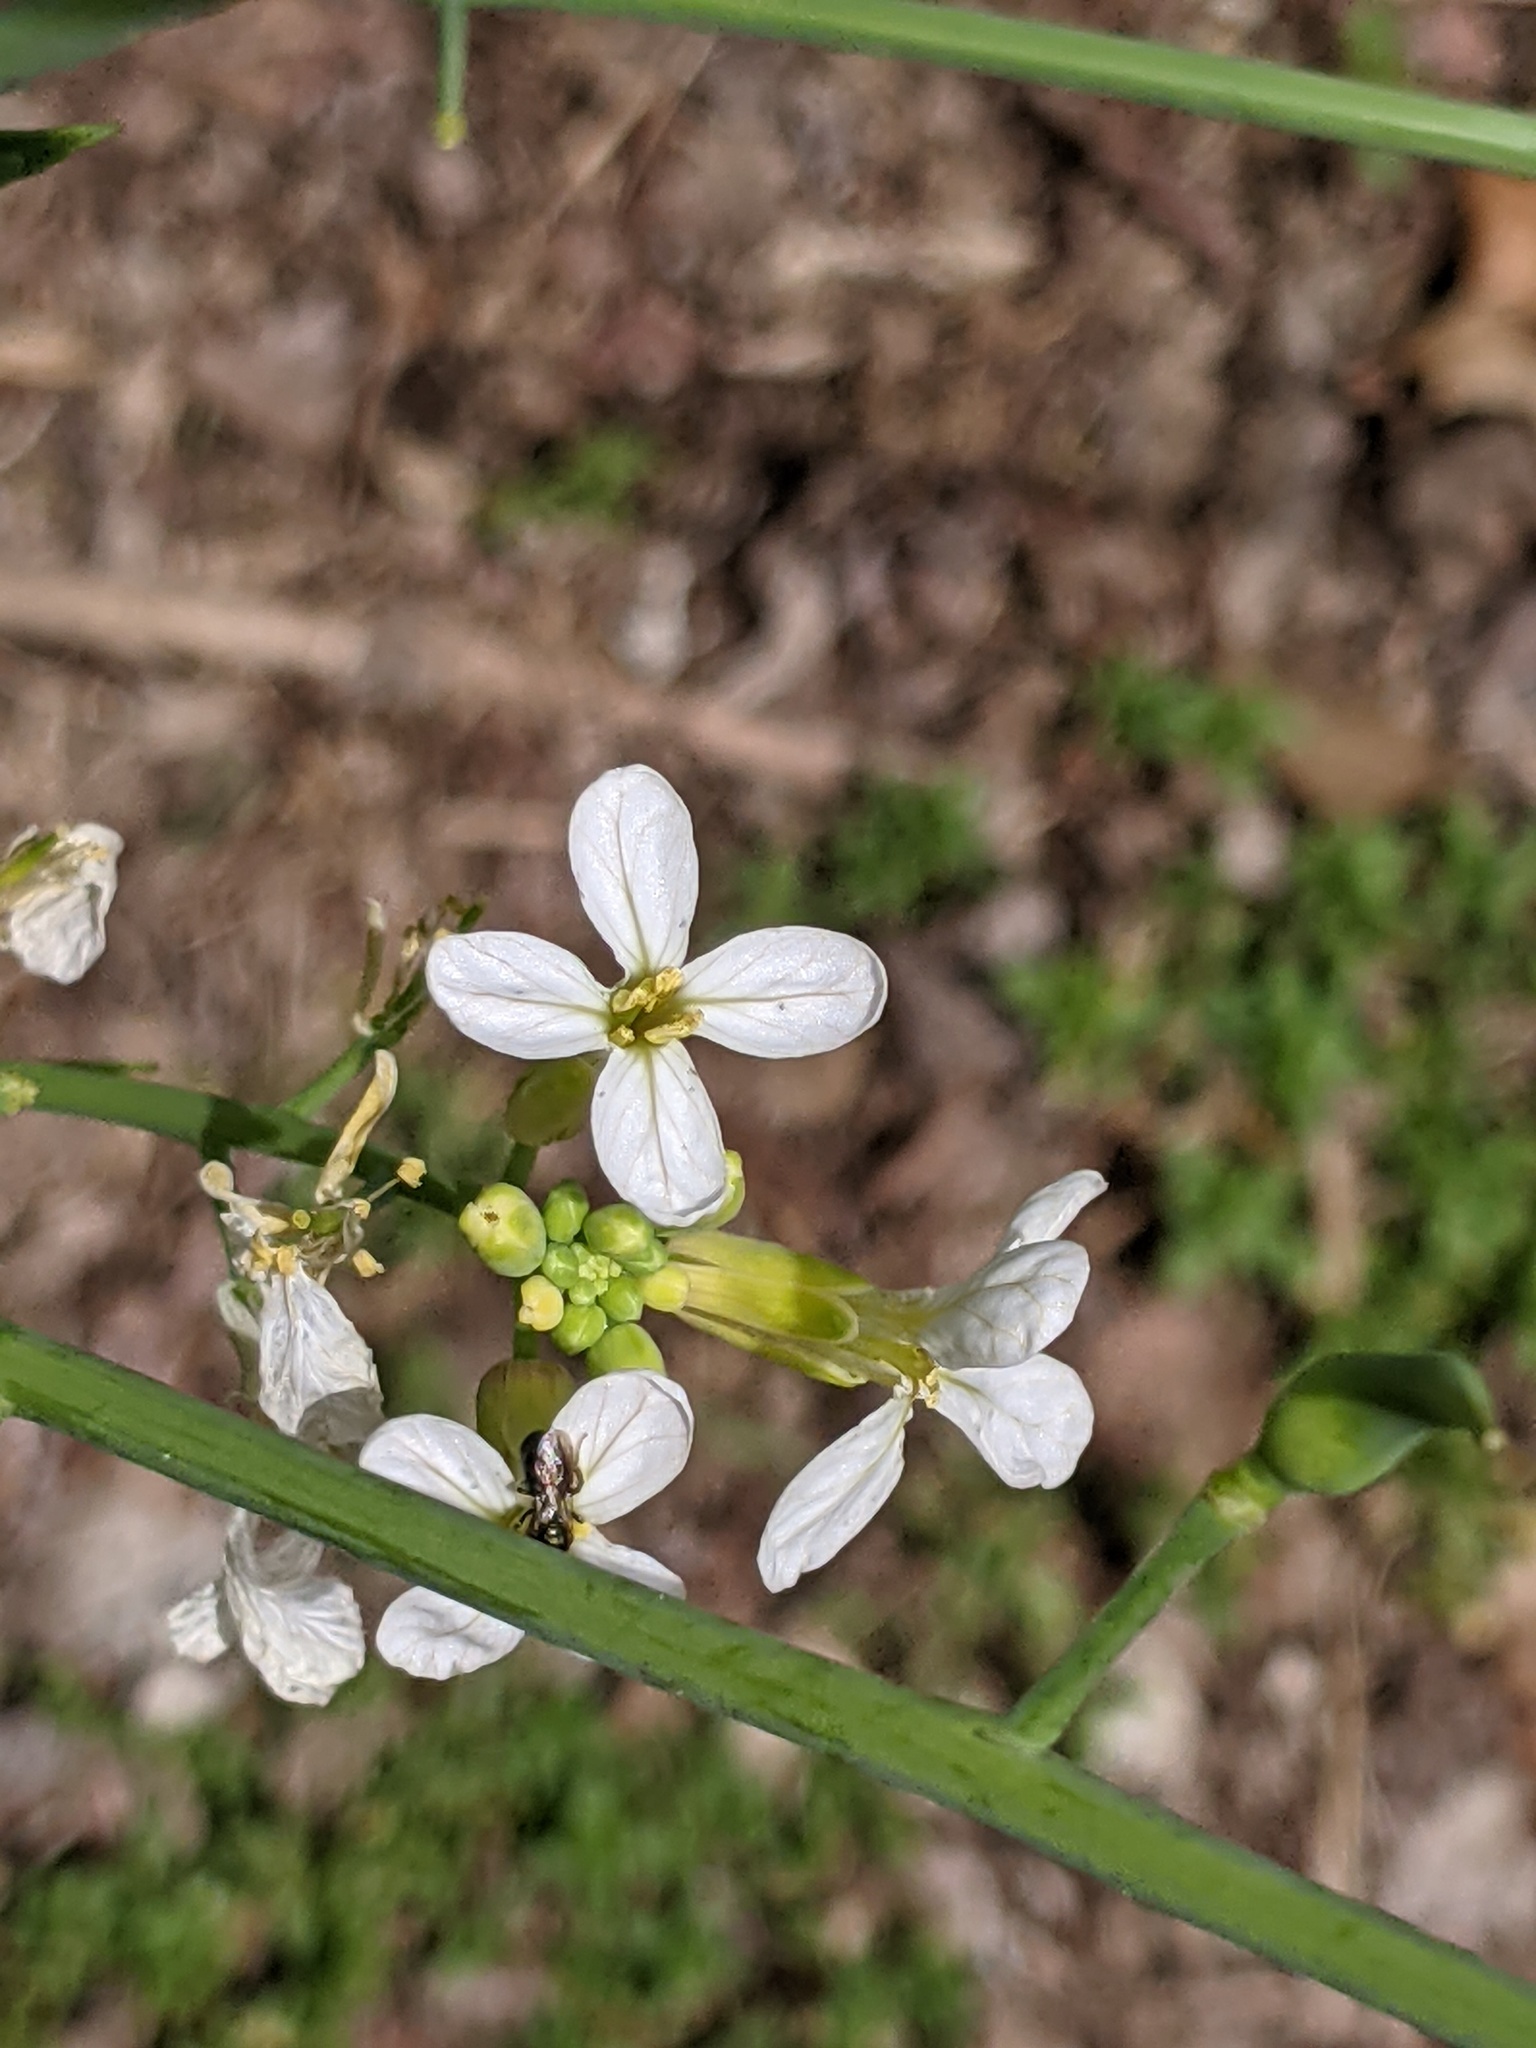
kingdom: Animalia
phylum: Arthropoda
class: Insecta
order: Hymenoptera
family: Apidae
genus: Zadontomerus
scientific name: Zadontomerus
